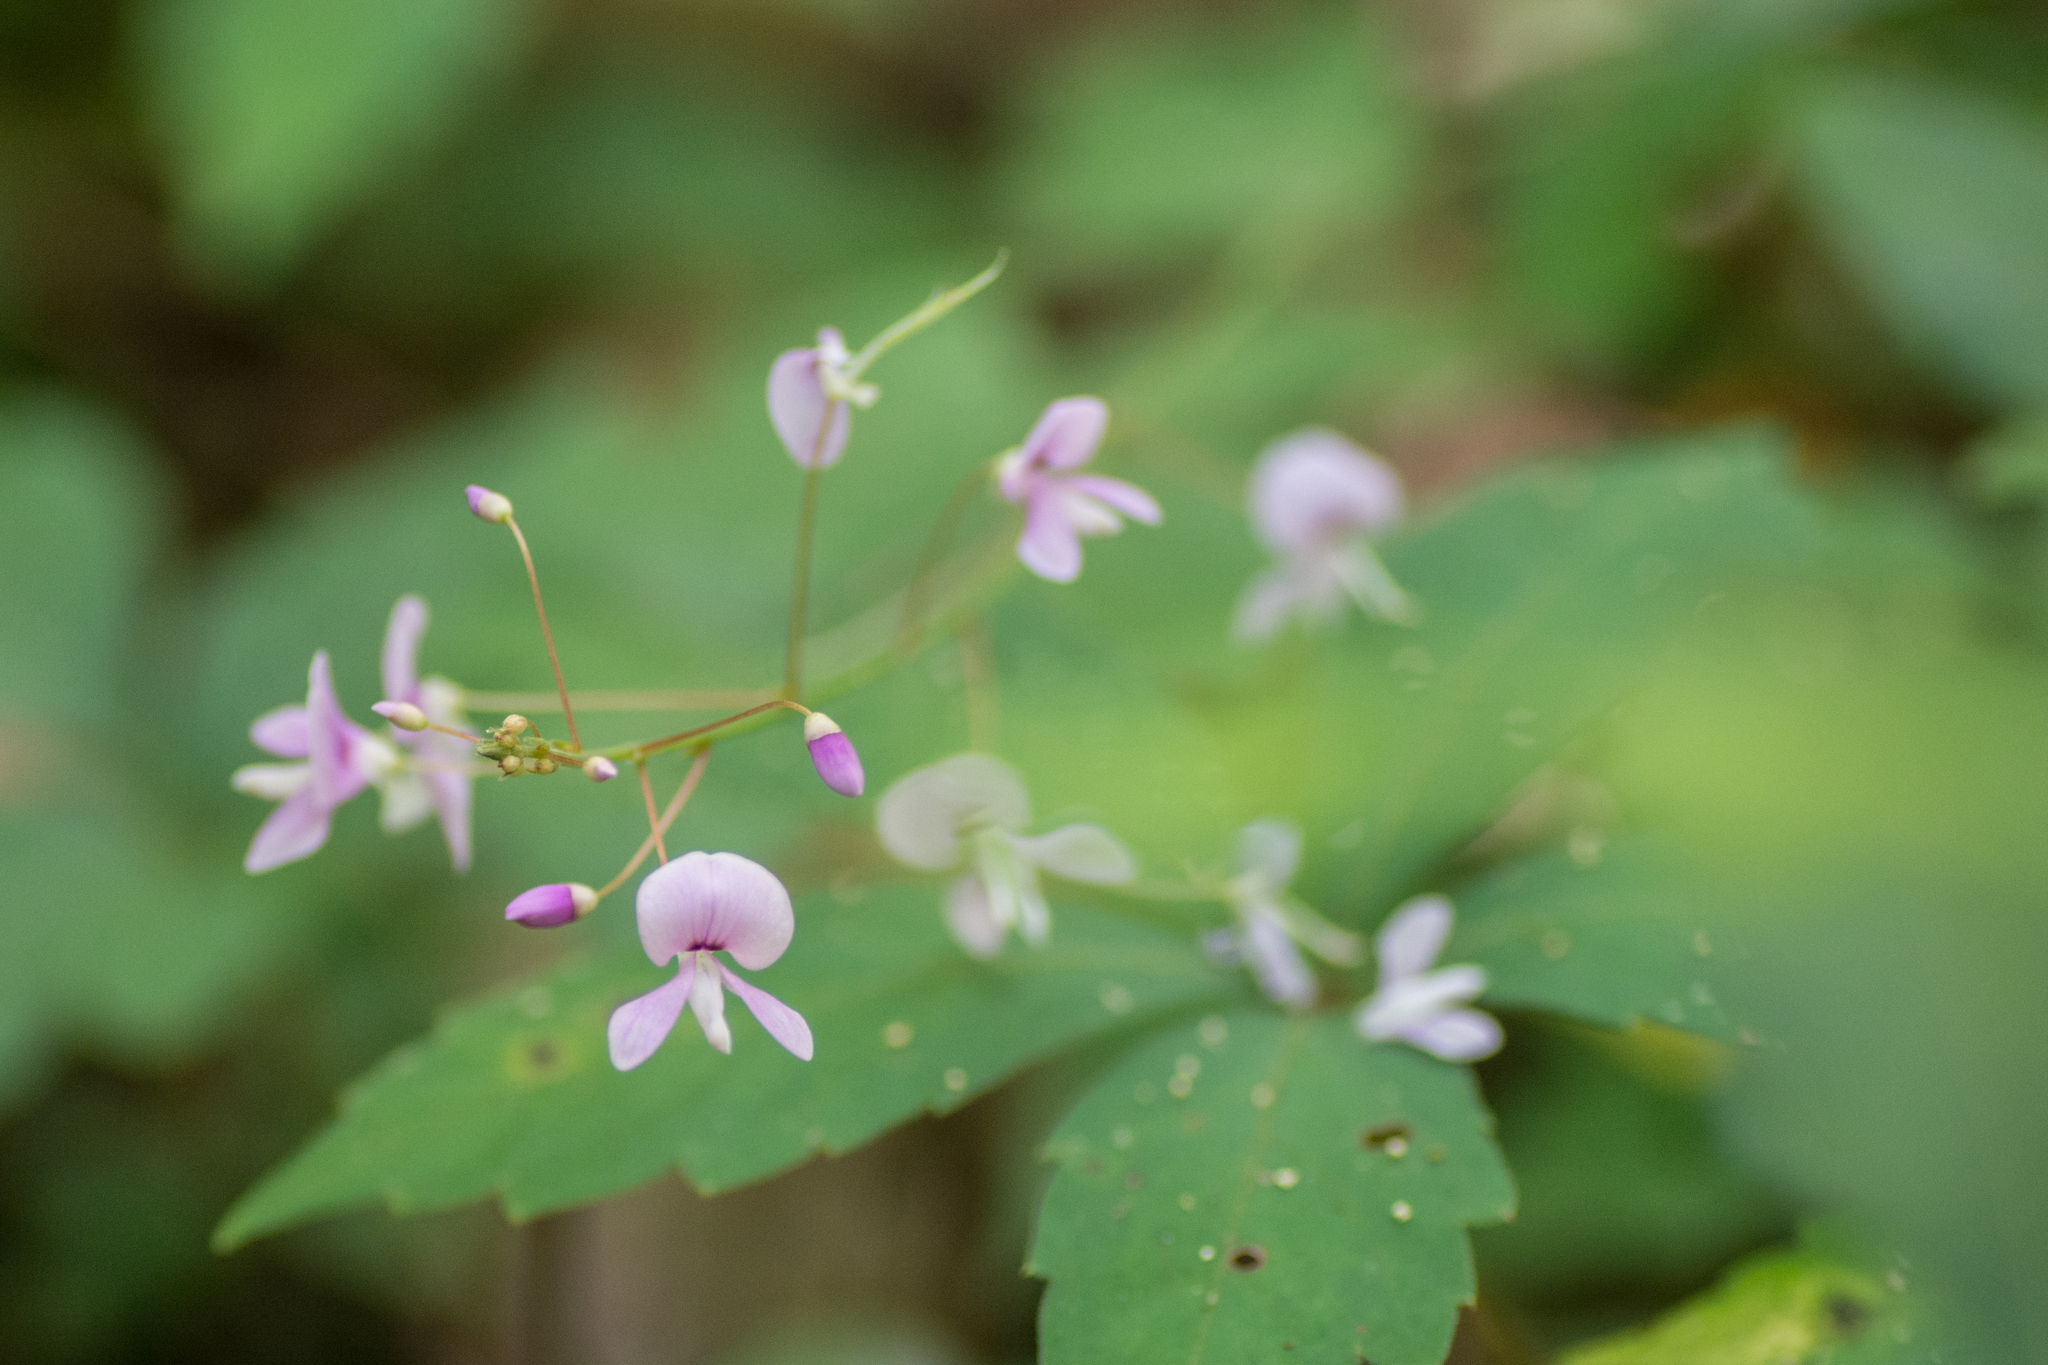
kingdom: Plantae
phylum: Tracheophyta
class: Magnoliopsida
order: Fabales
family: Fabaceae
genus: Hylodesmum
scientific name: Hylodesmum nudiflorum
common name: Bare-stemmed tick-trefoil
